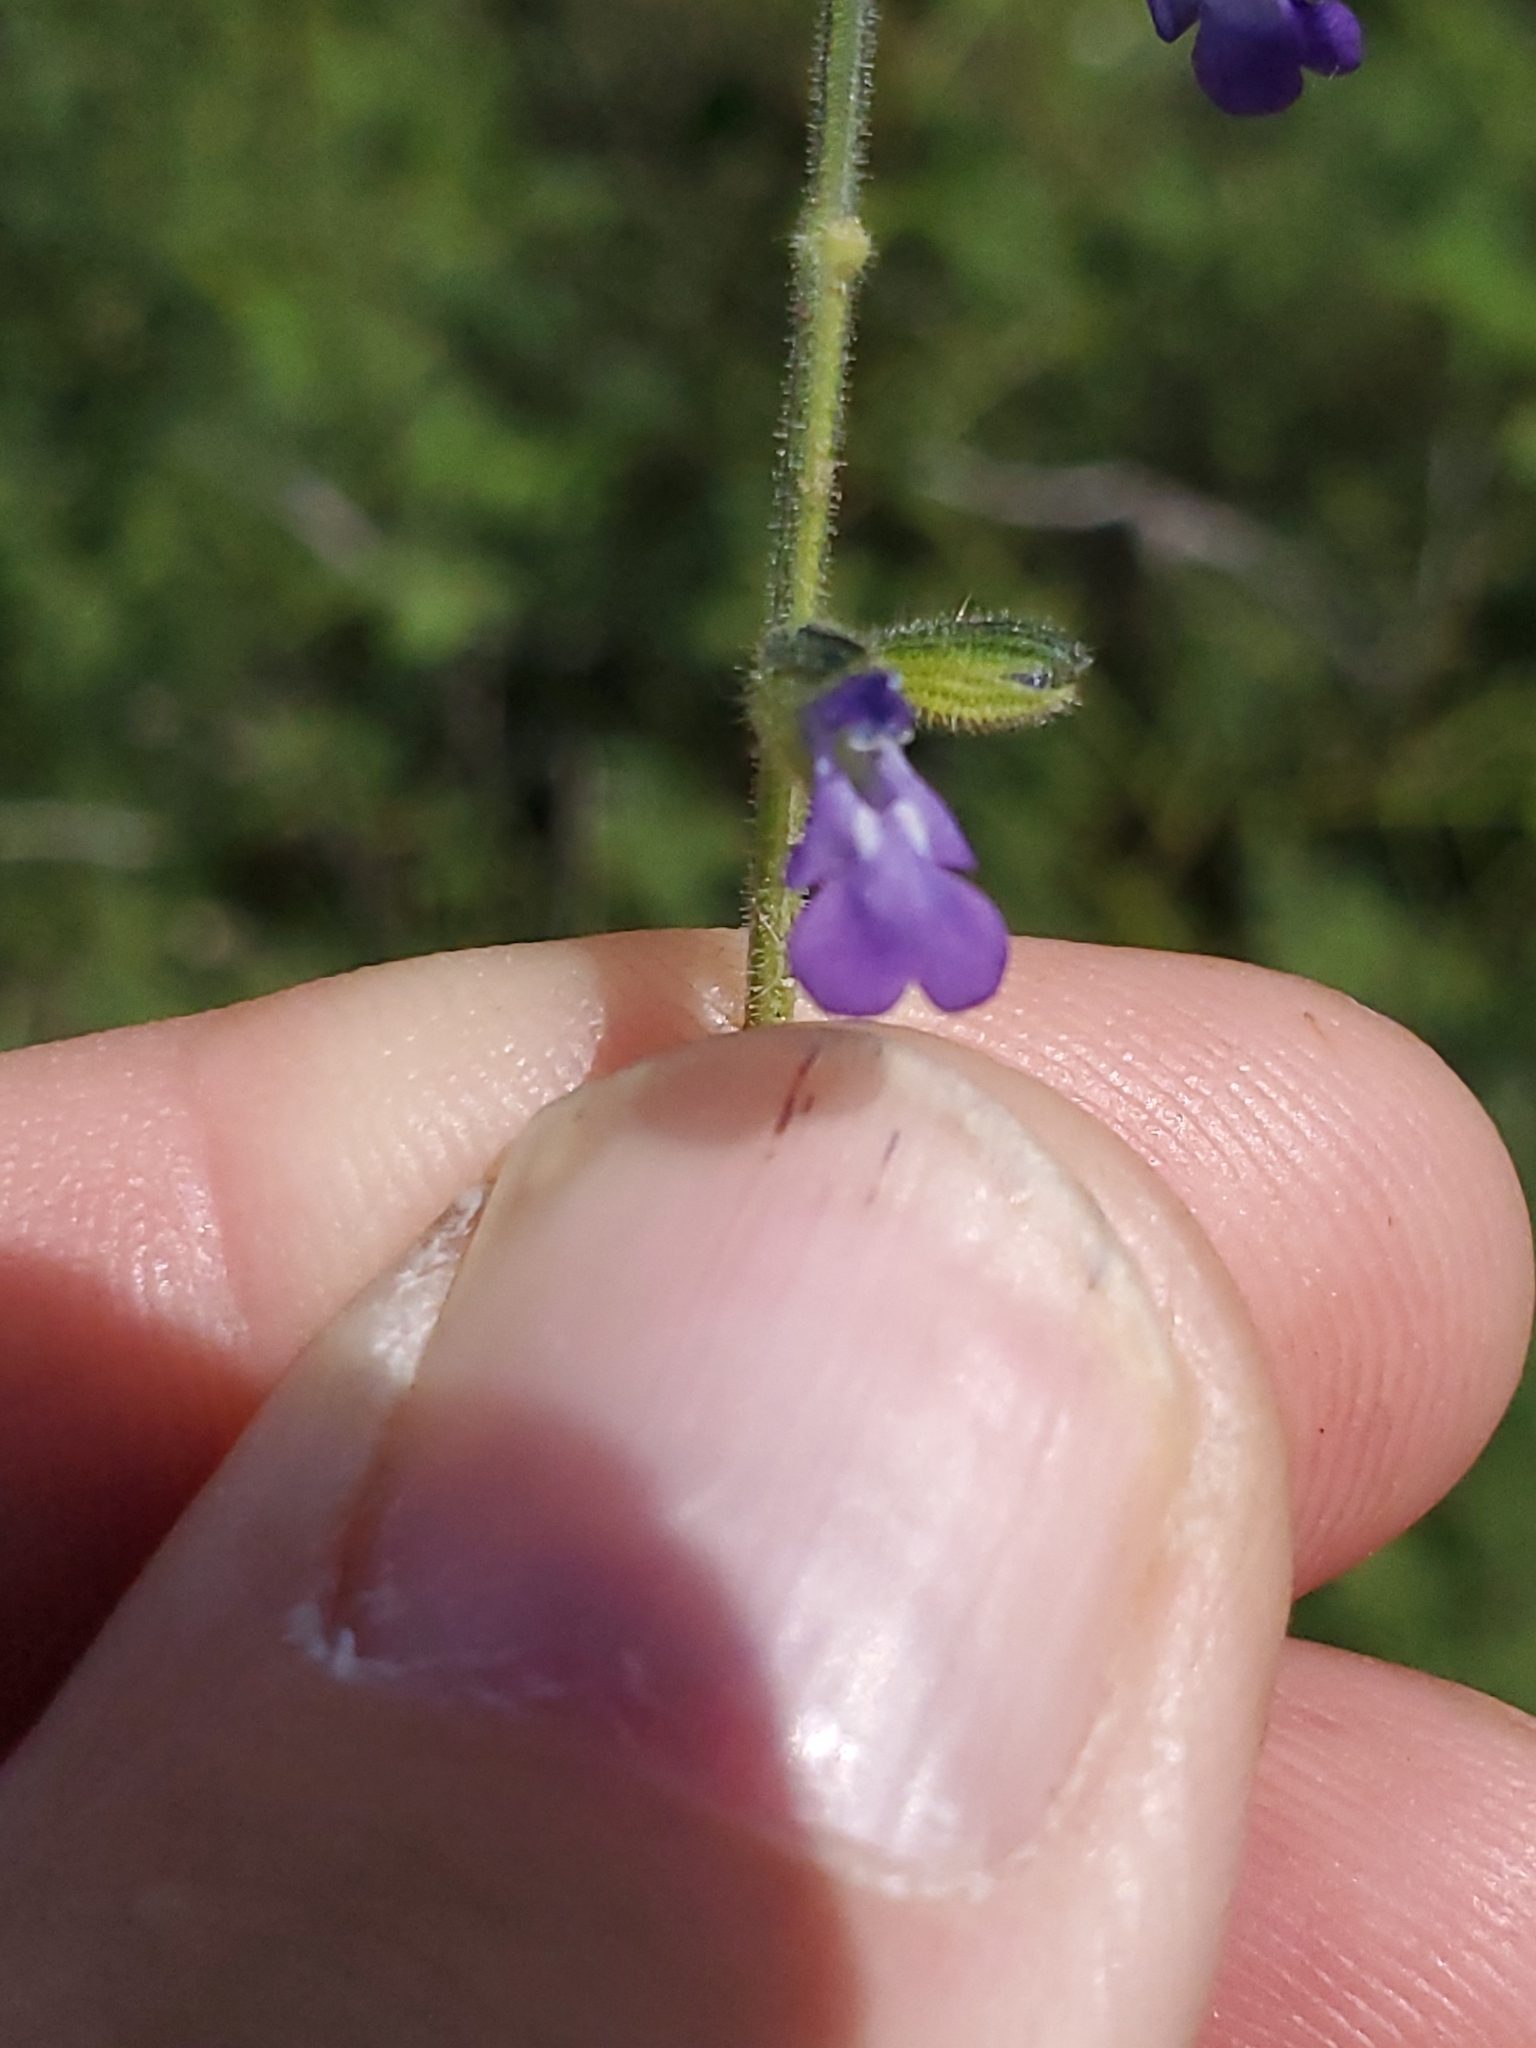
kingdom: Plantae
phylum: Tracheophyta
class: Magnoliopsida
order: Lamiales
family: Lamiaceae
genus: Salvia
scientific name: Salvia subincisa
